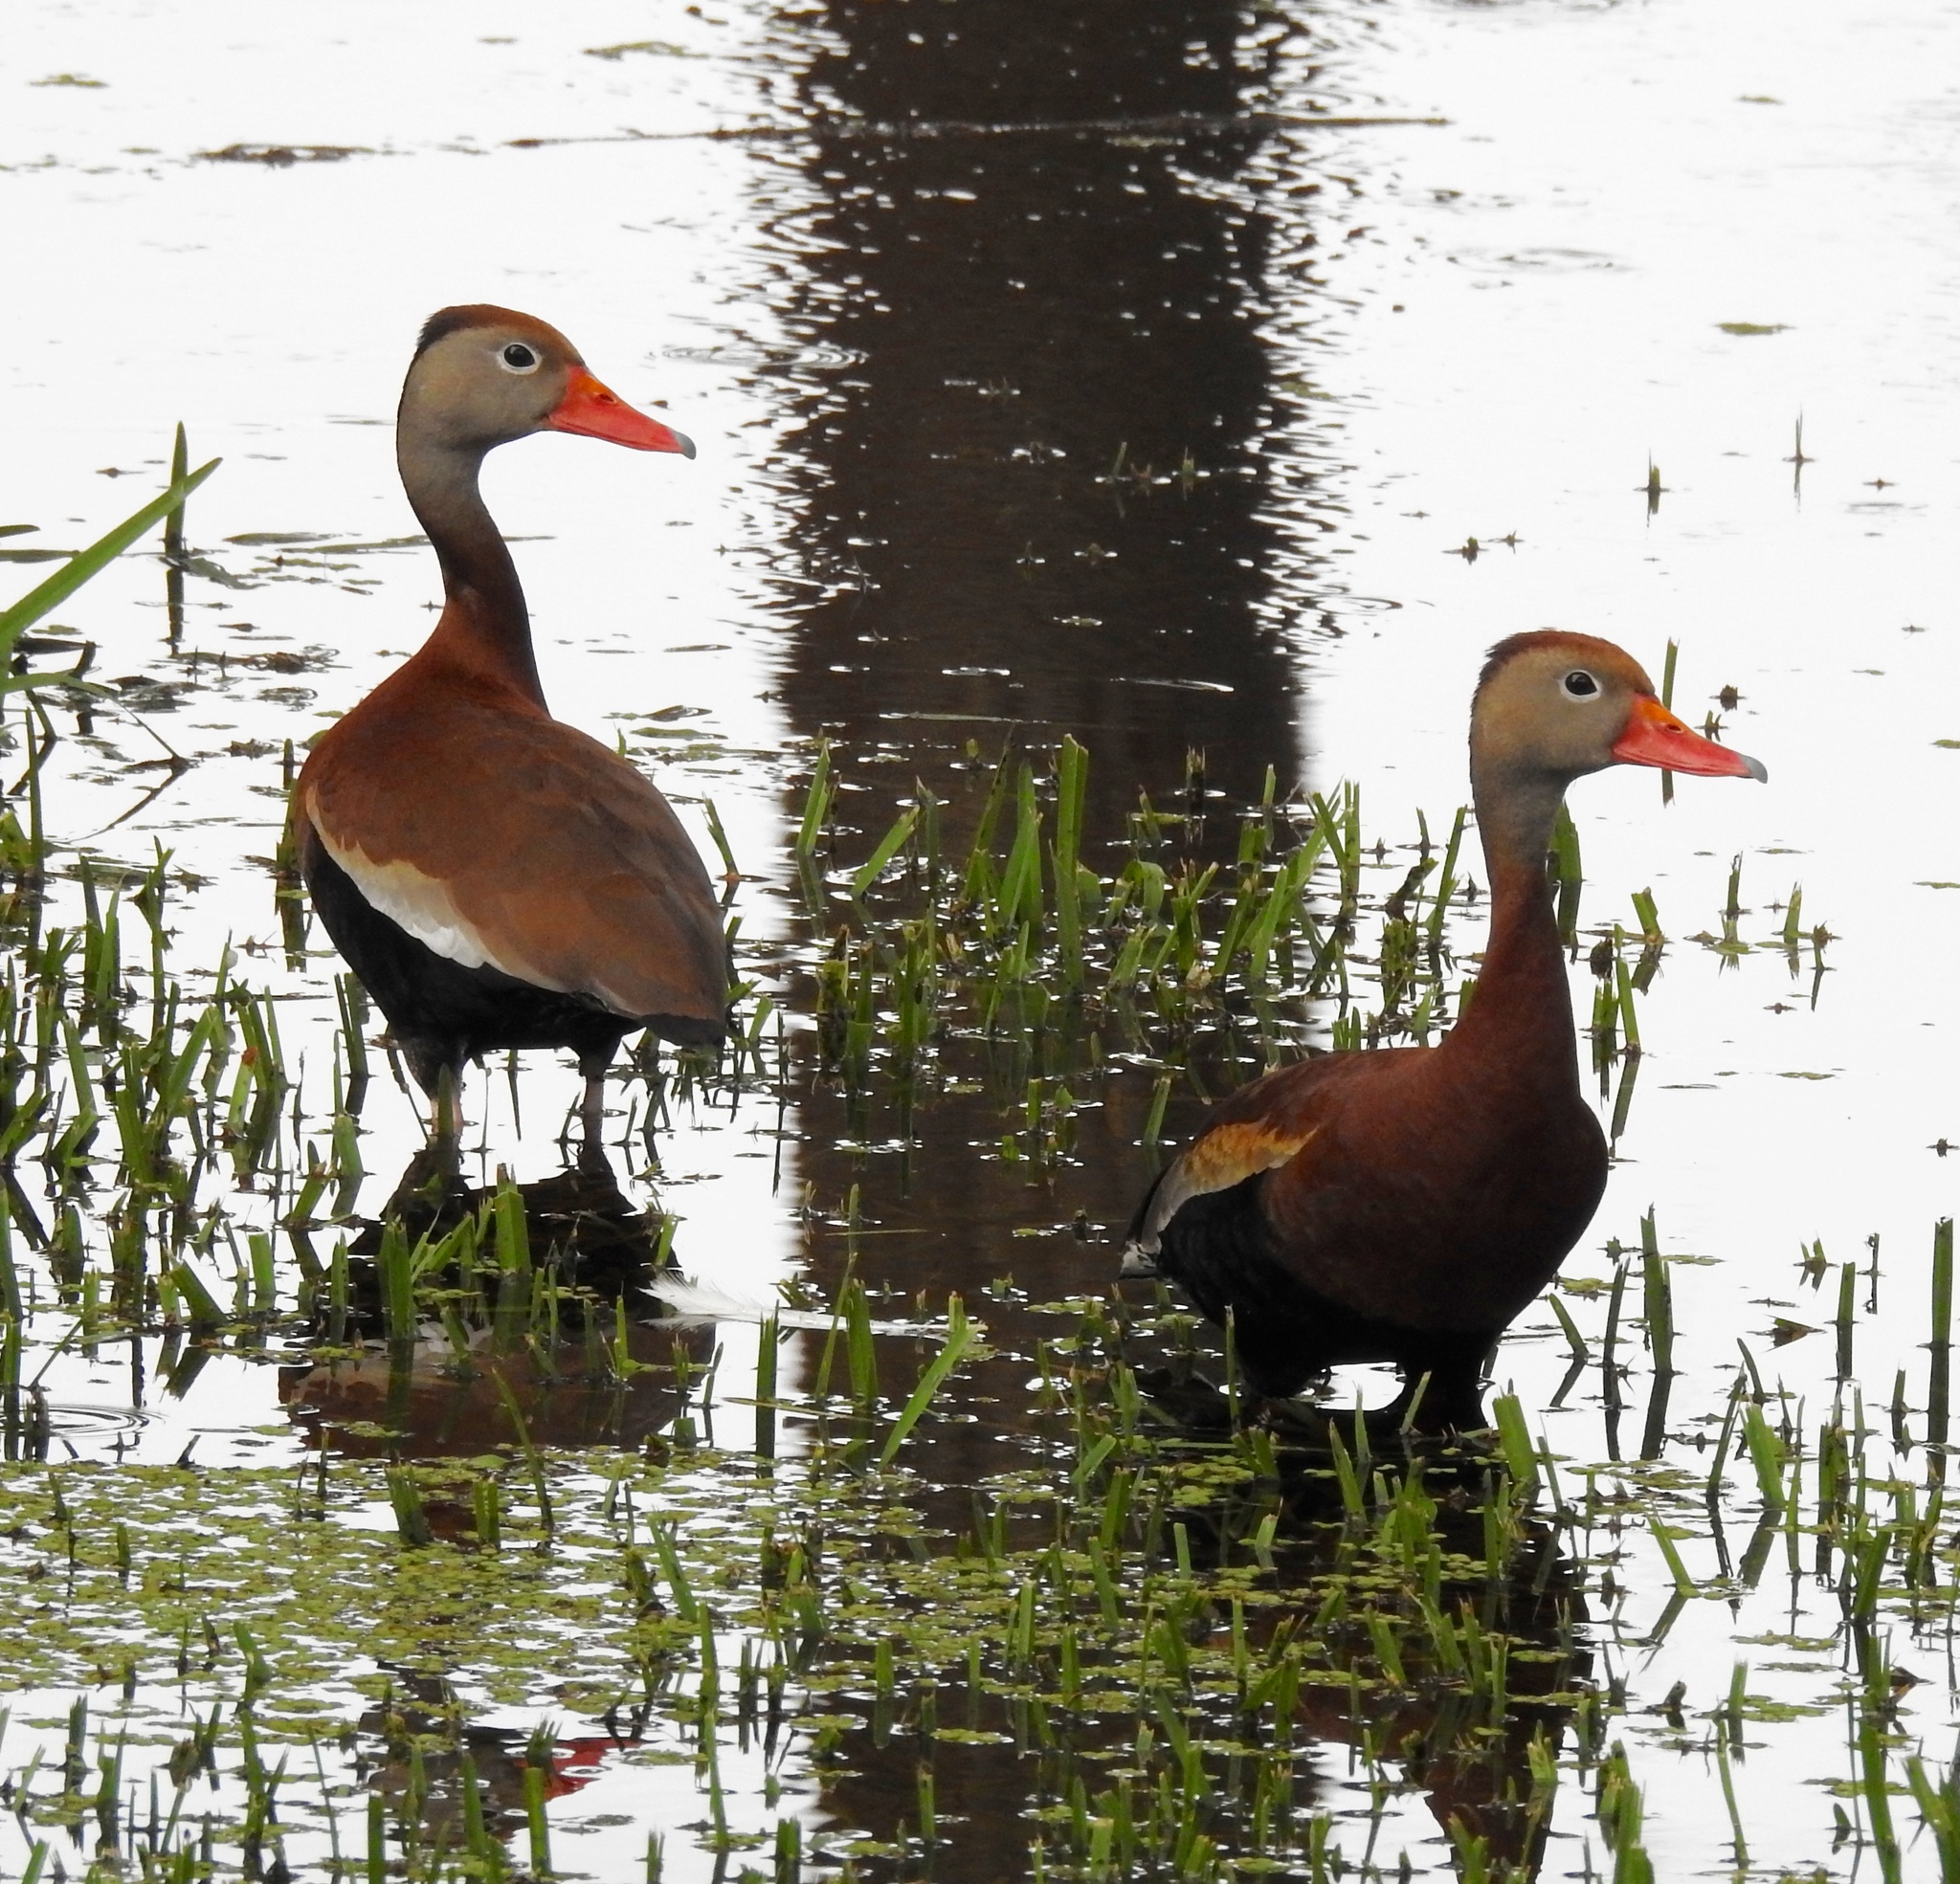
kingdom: Animalia
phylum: Chordata
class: Aves
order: Anseriformes
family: Anatidae
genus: Dendrocygna
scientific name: Dendrocygna autumnalis
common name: Black-bellied whistling duck
